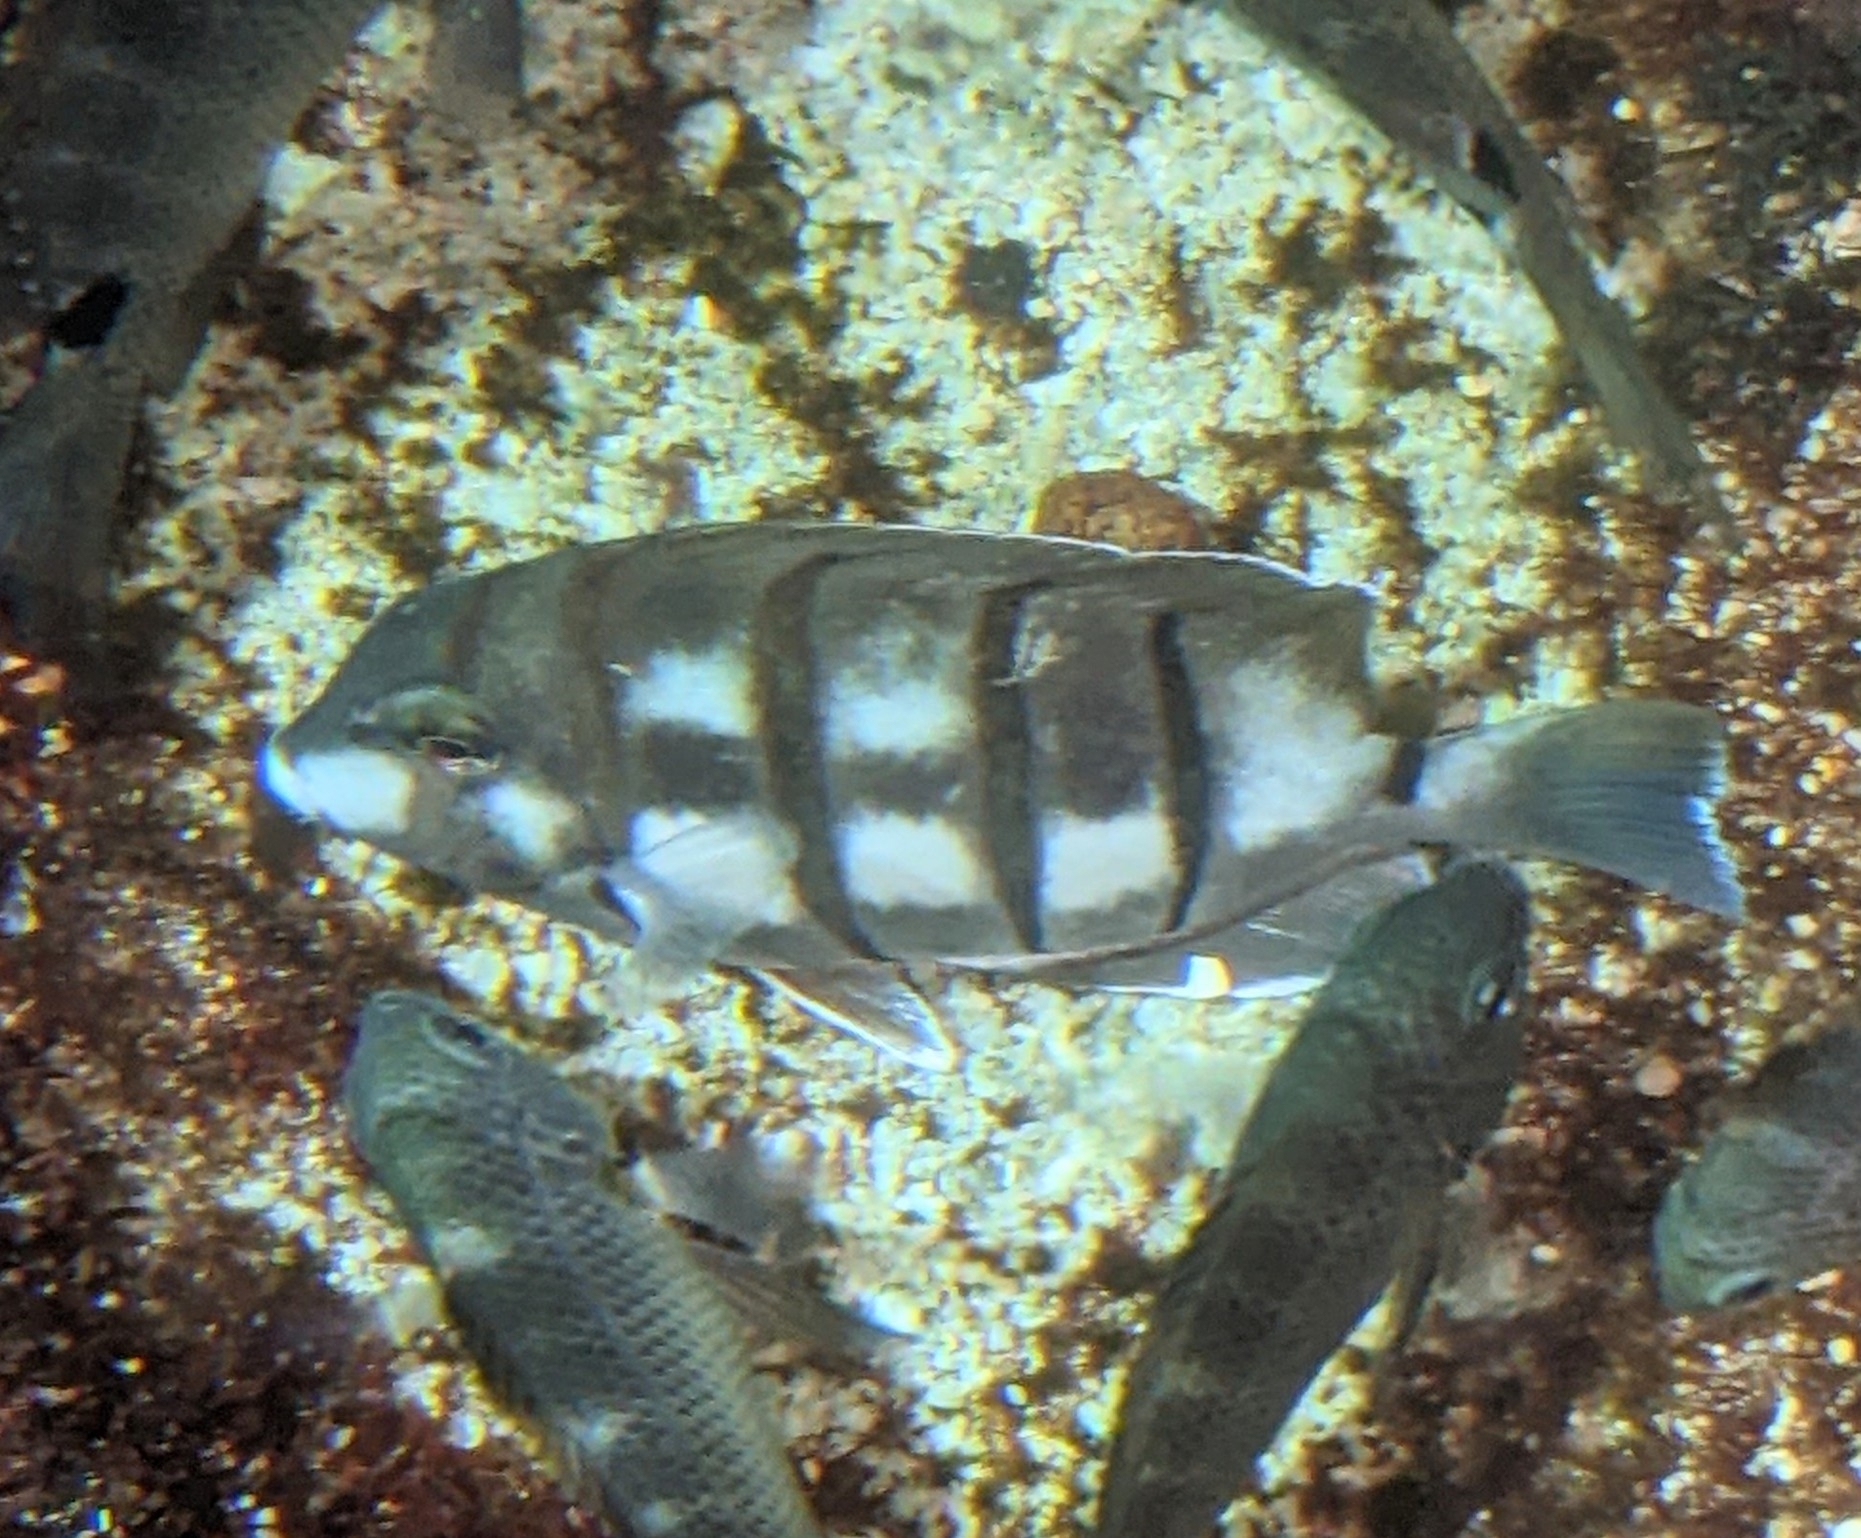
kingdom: Animalia
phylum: Chordata
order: Perciformes
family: Acanthuridae
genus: Acanthurus
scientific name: Acanthurus triostegus
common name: Convict surgeonfish
